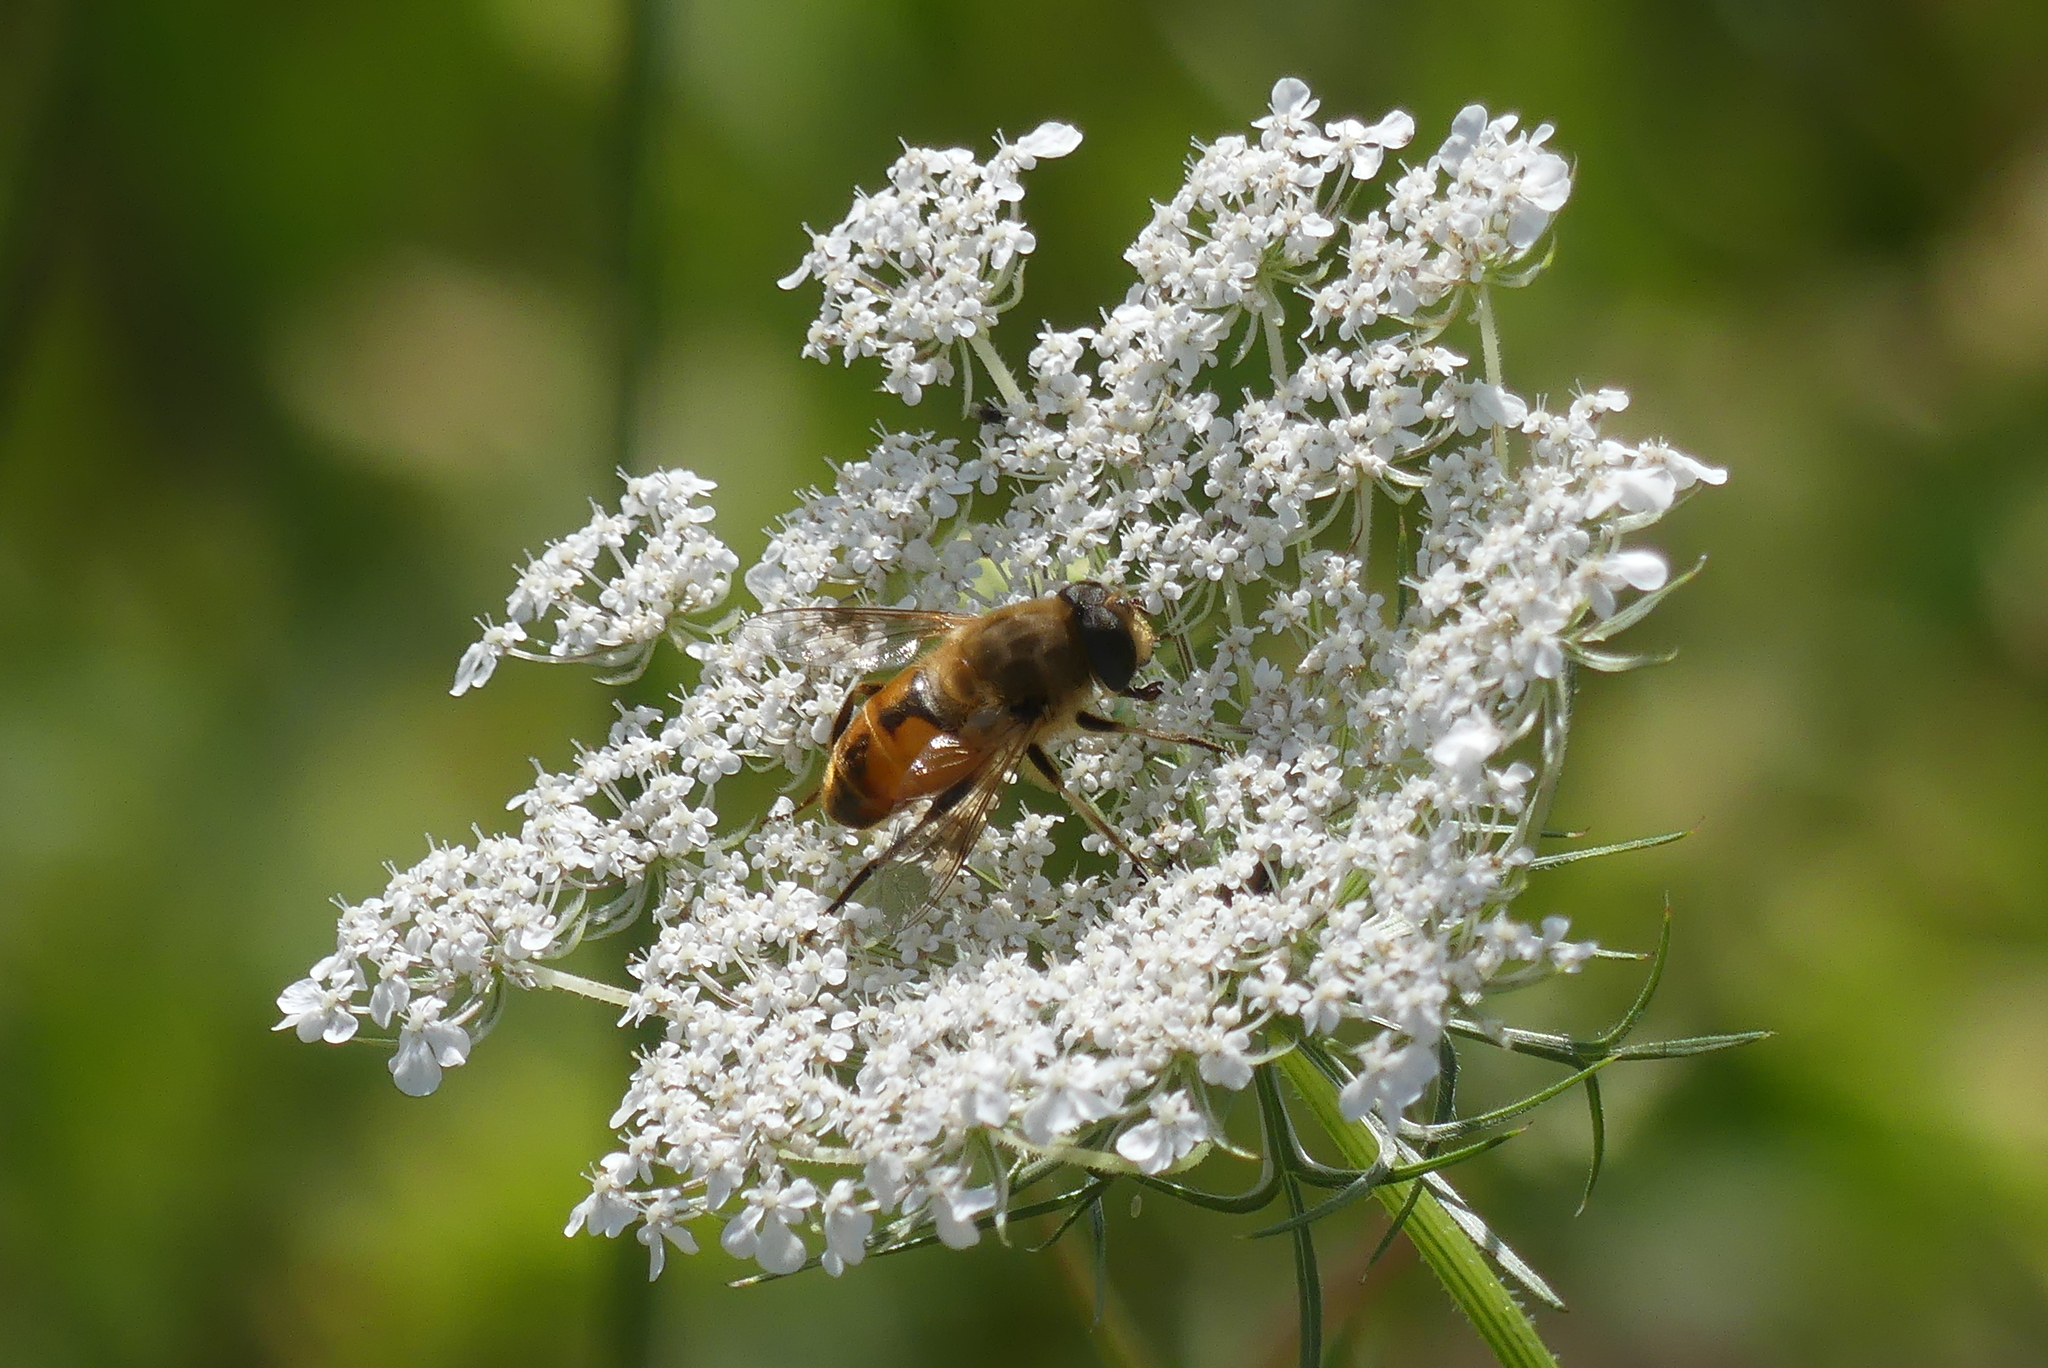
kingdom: Animalia
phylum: Arthropoda
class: Insecta
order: Diptera
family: Syrphidae
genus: Eristalis
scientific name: Eristalis tenax
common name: Drone fly
